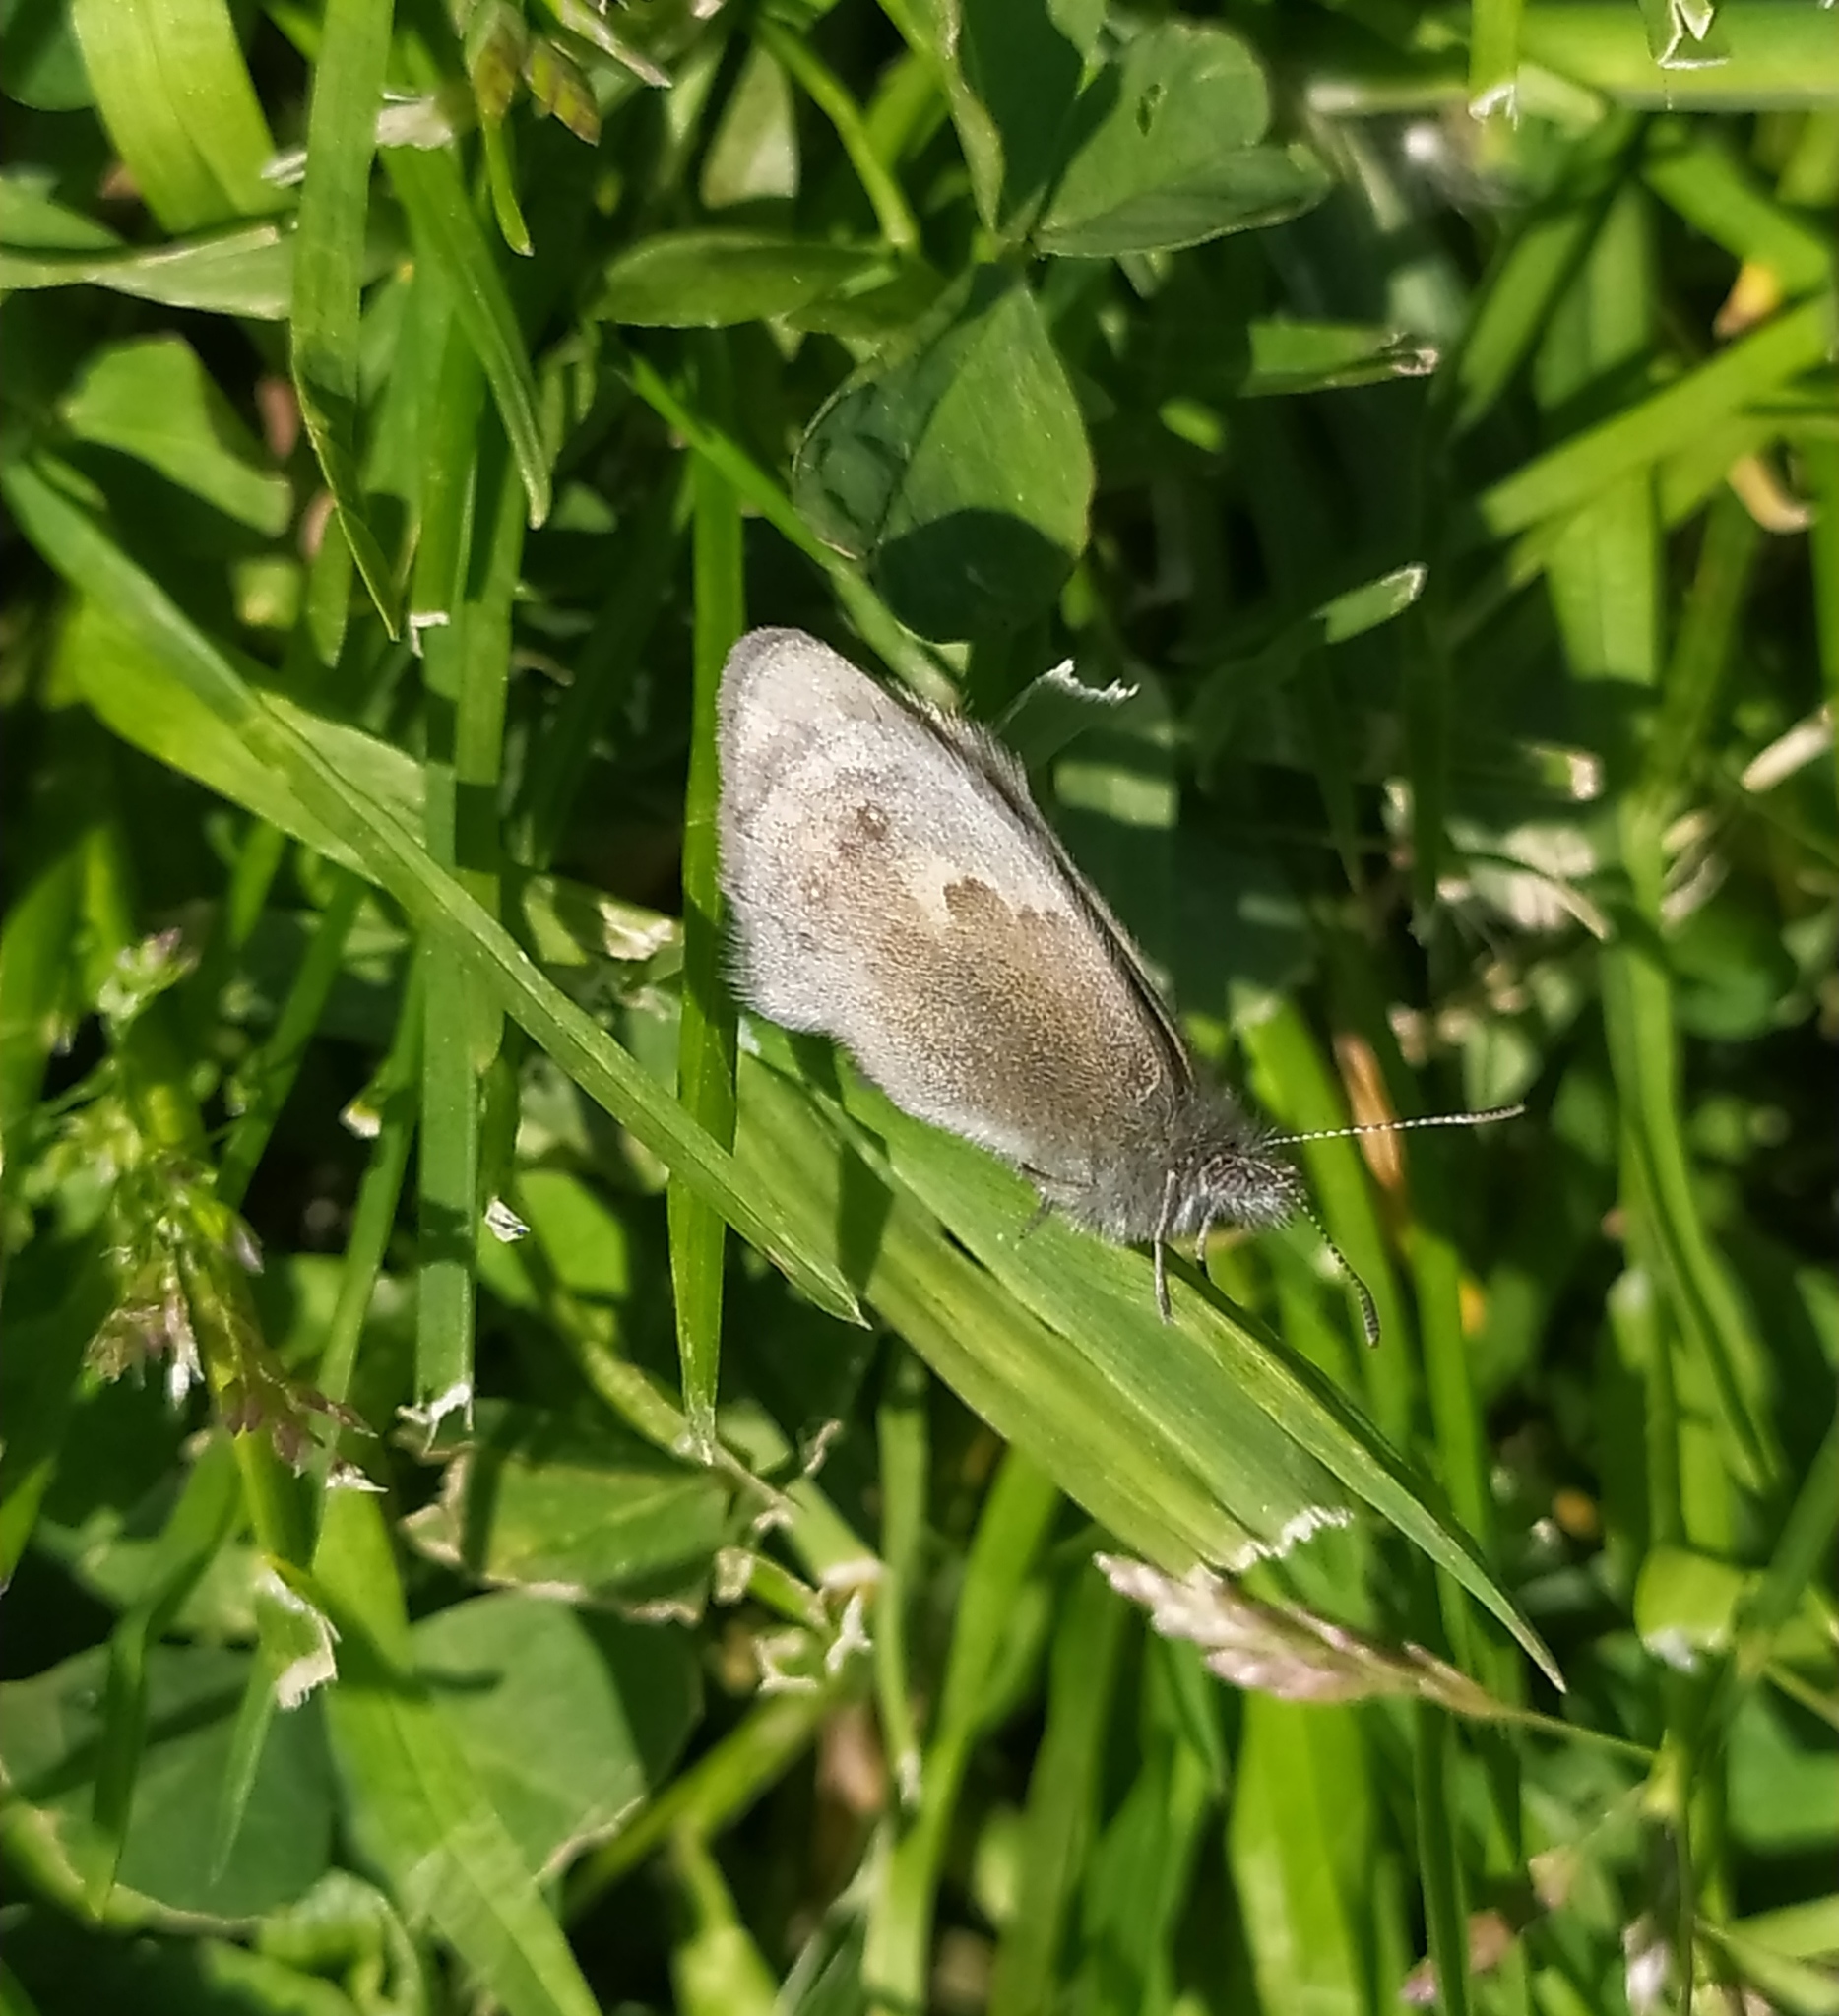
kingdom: Animalia
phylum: Arthropoda
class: Insecta
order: Lepidoptera
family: Nymphalidae
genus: Coenonympha
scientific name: Coenonympha pamphilus
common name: Small heath
